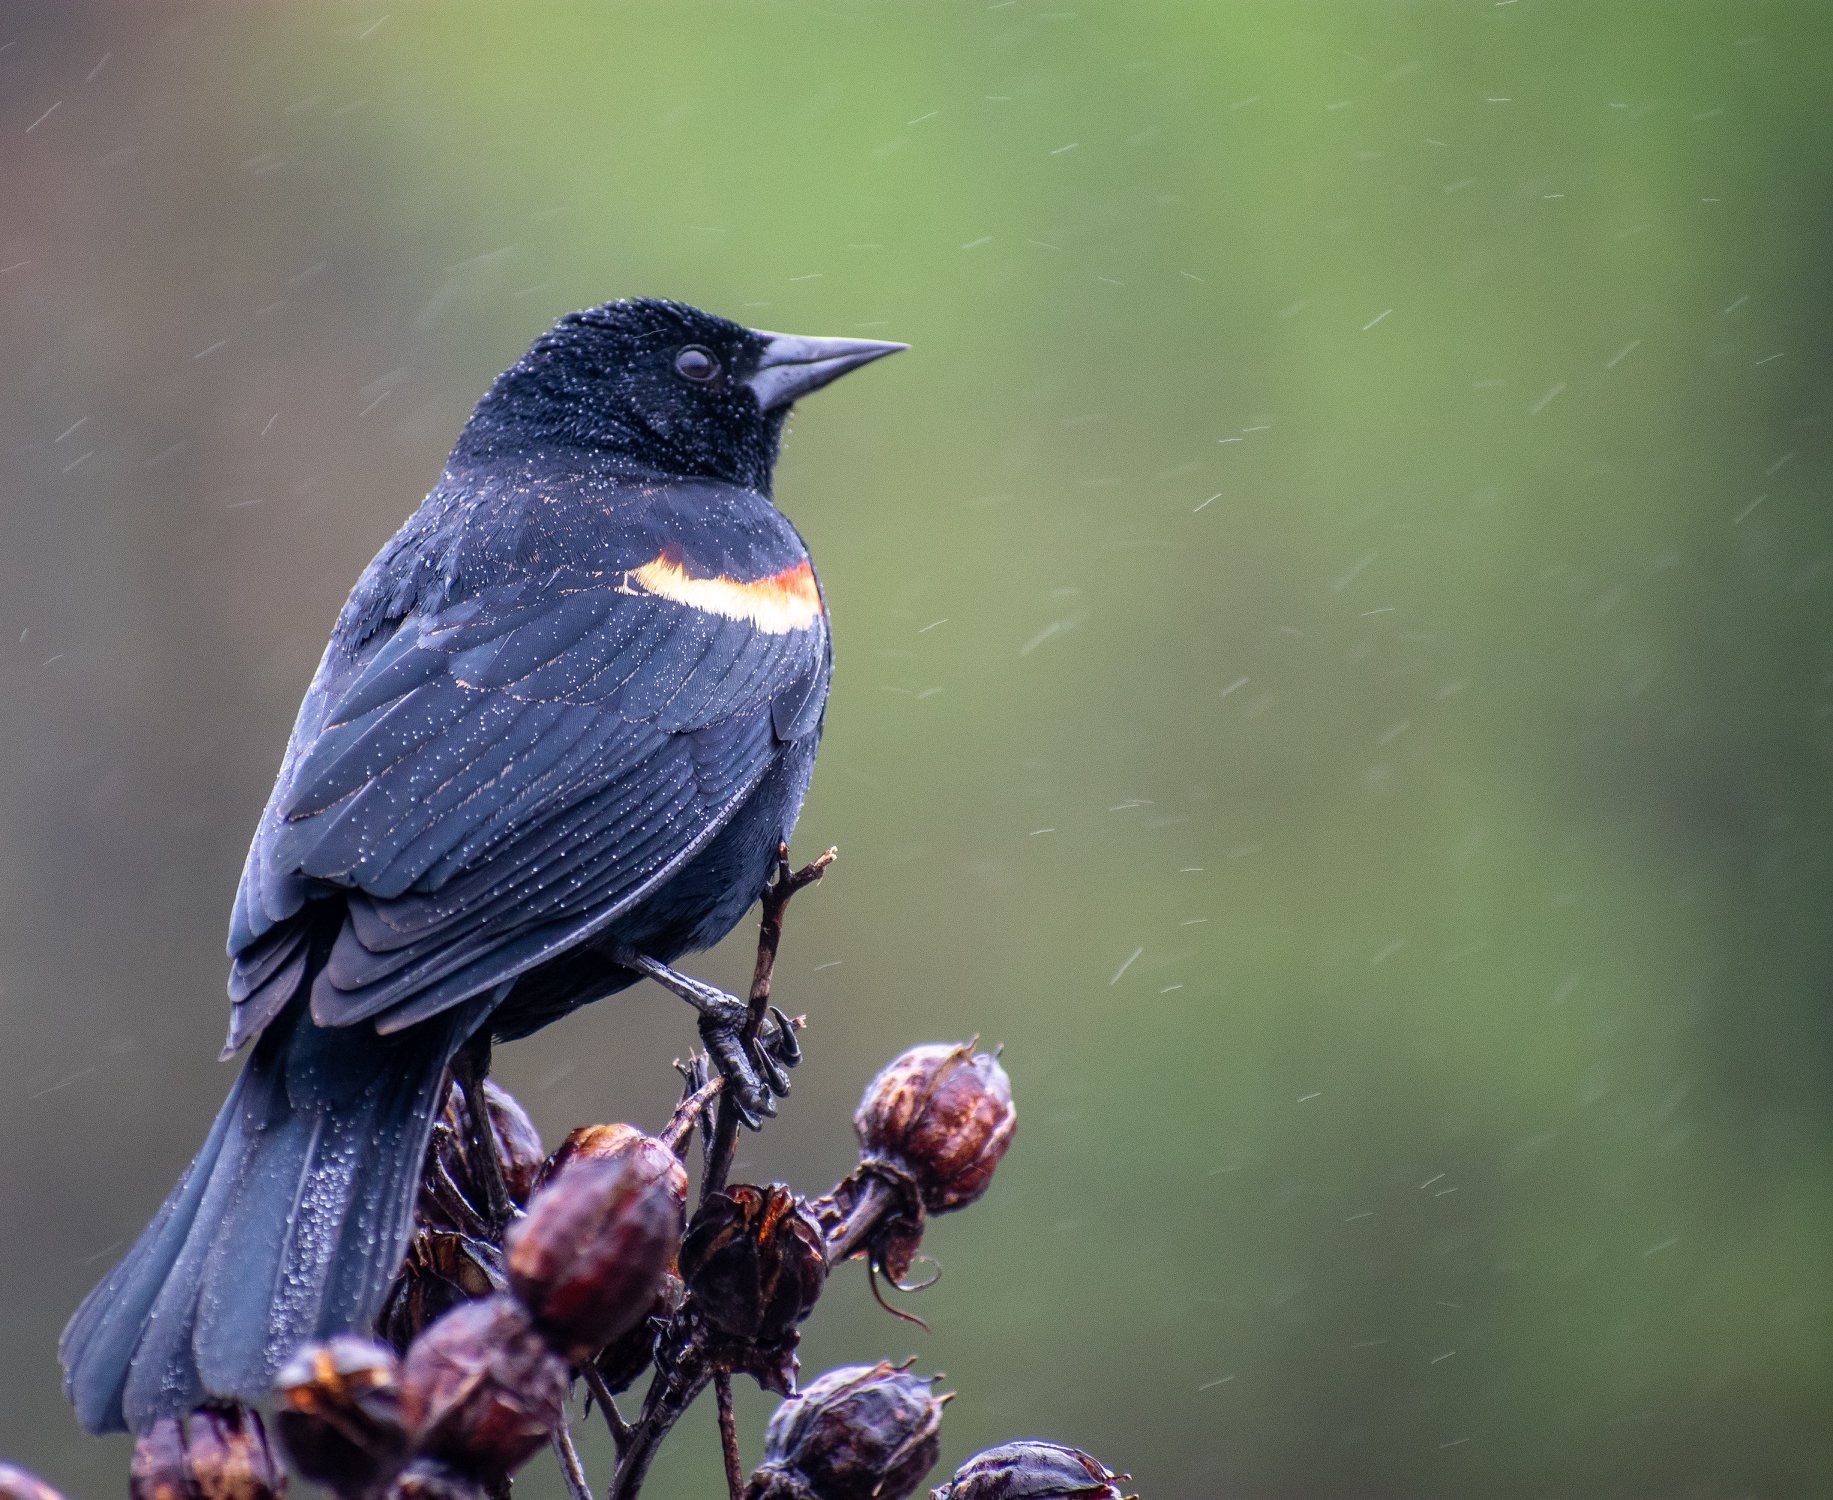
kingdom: Animalia
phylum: Chordata
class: Aves
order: Passeriformes
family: Icteridae
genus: Agelaius
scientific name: Agelaius phoeniceus
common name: Red-winged blackbird
